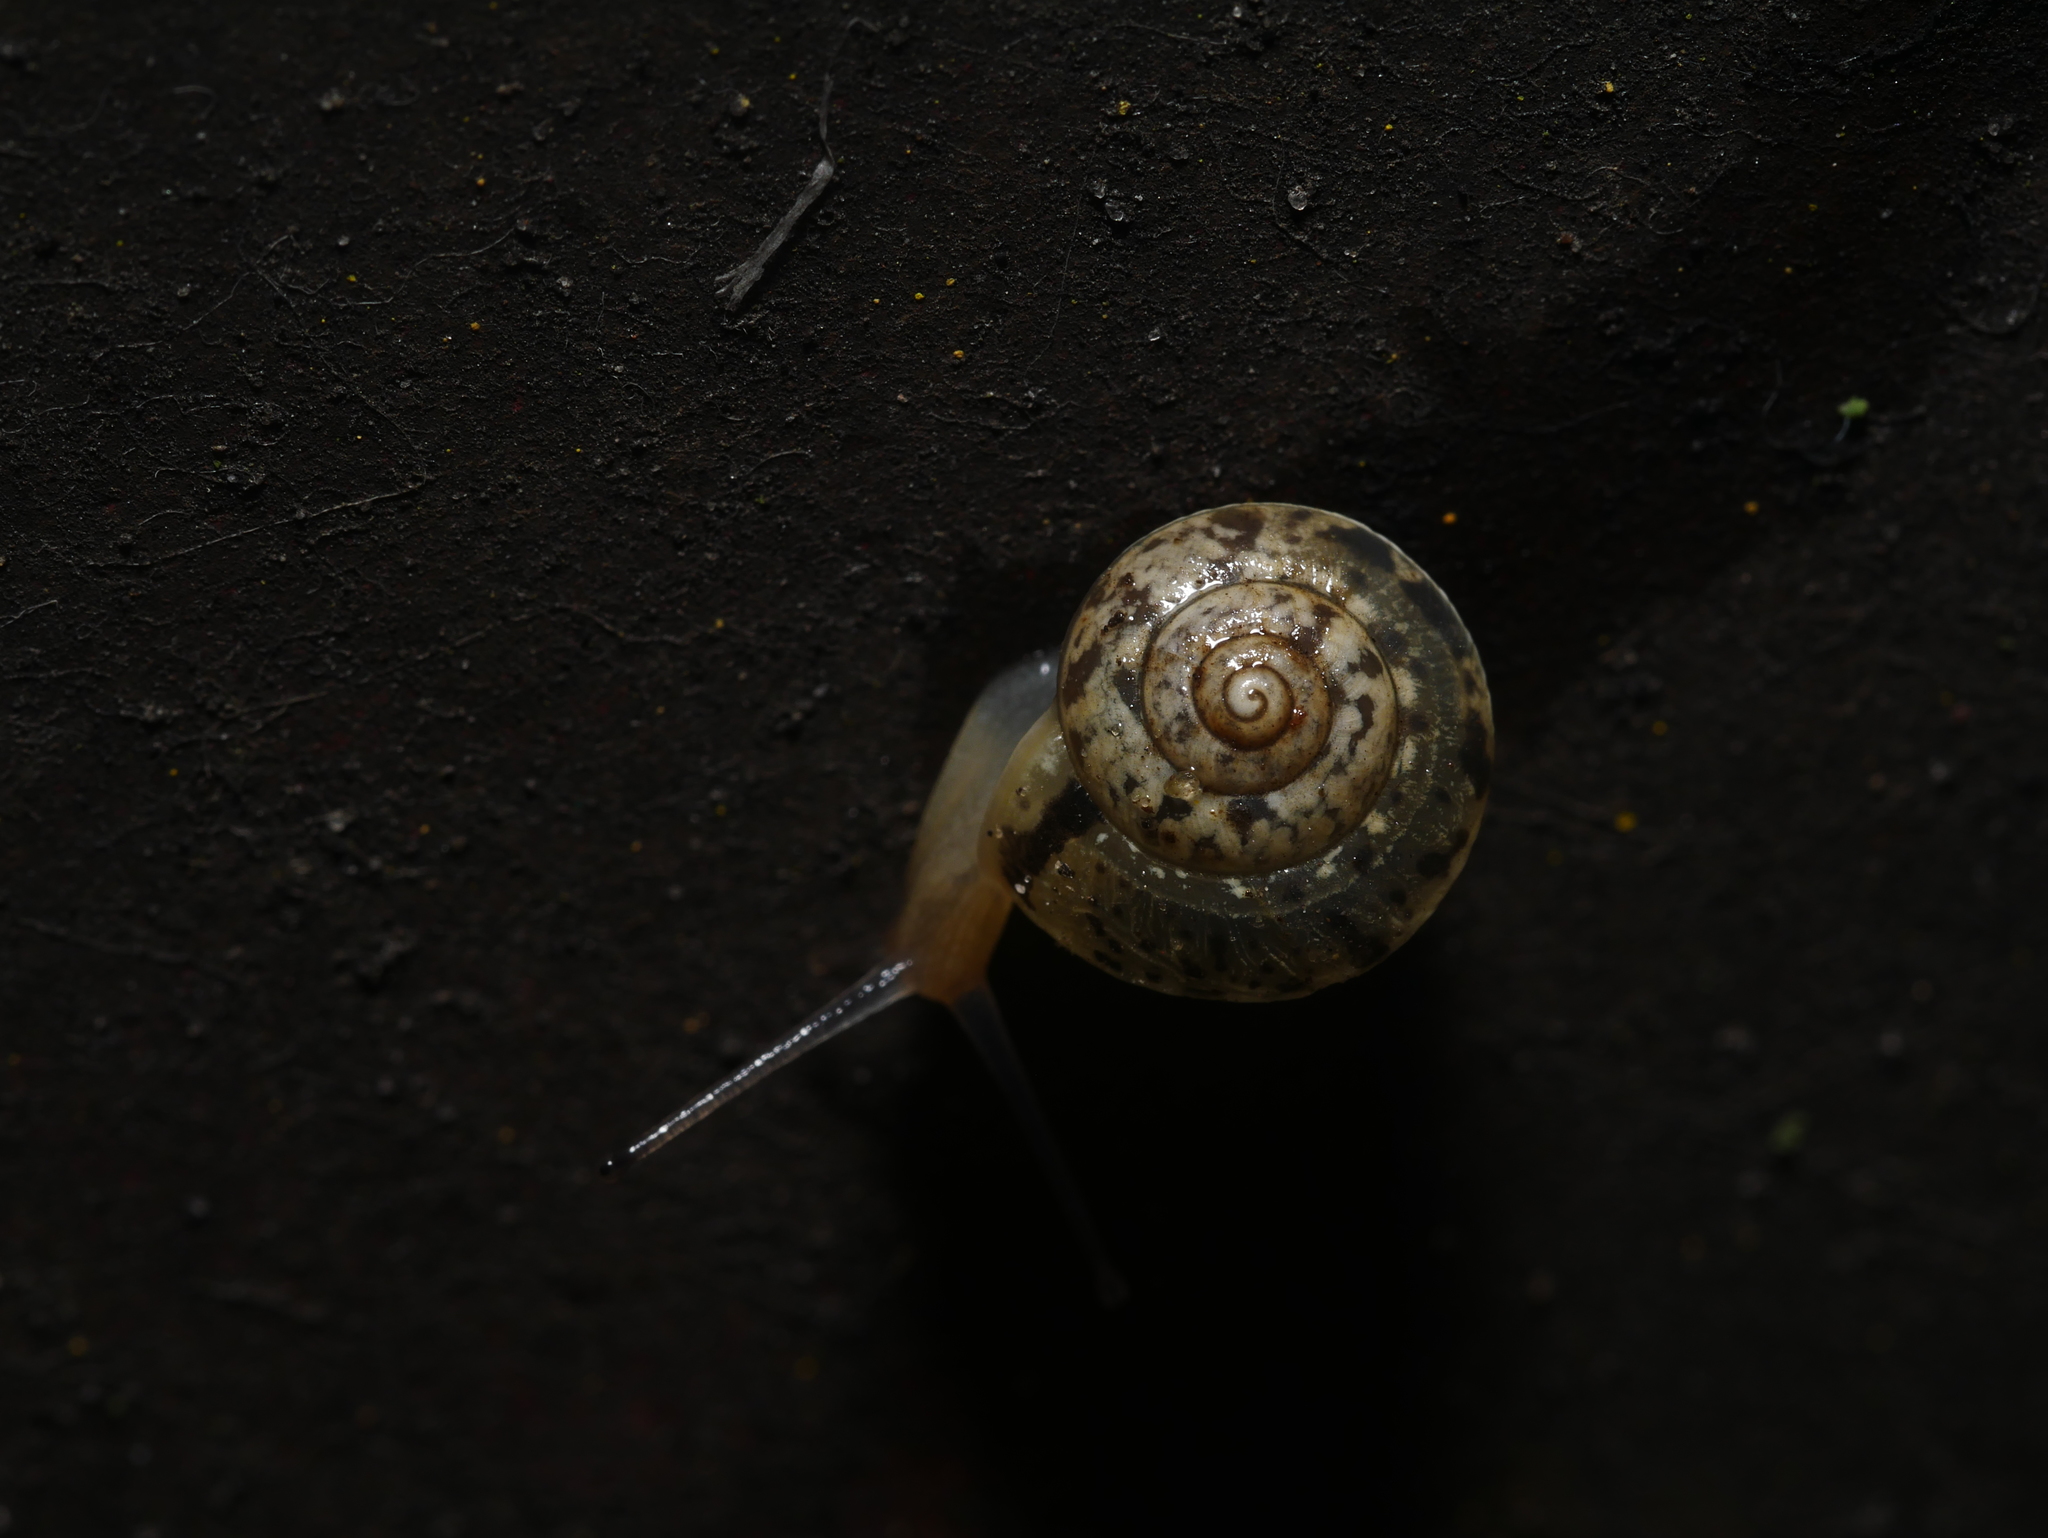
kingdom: Animalia
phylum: Mollusca
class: Gastropoda
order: Stylommatophora
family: Hygromiidae
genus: Hygromia
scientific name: Hygromia cinctella
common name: Girdled snail
